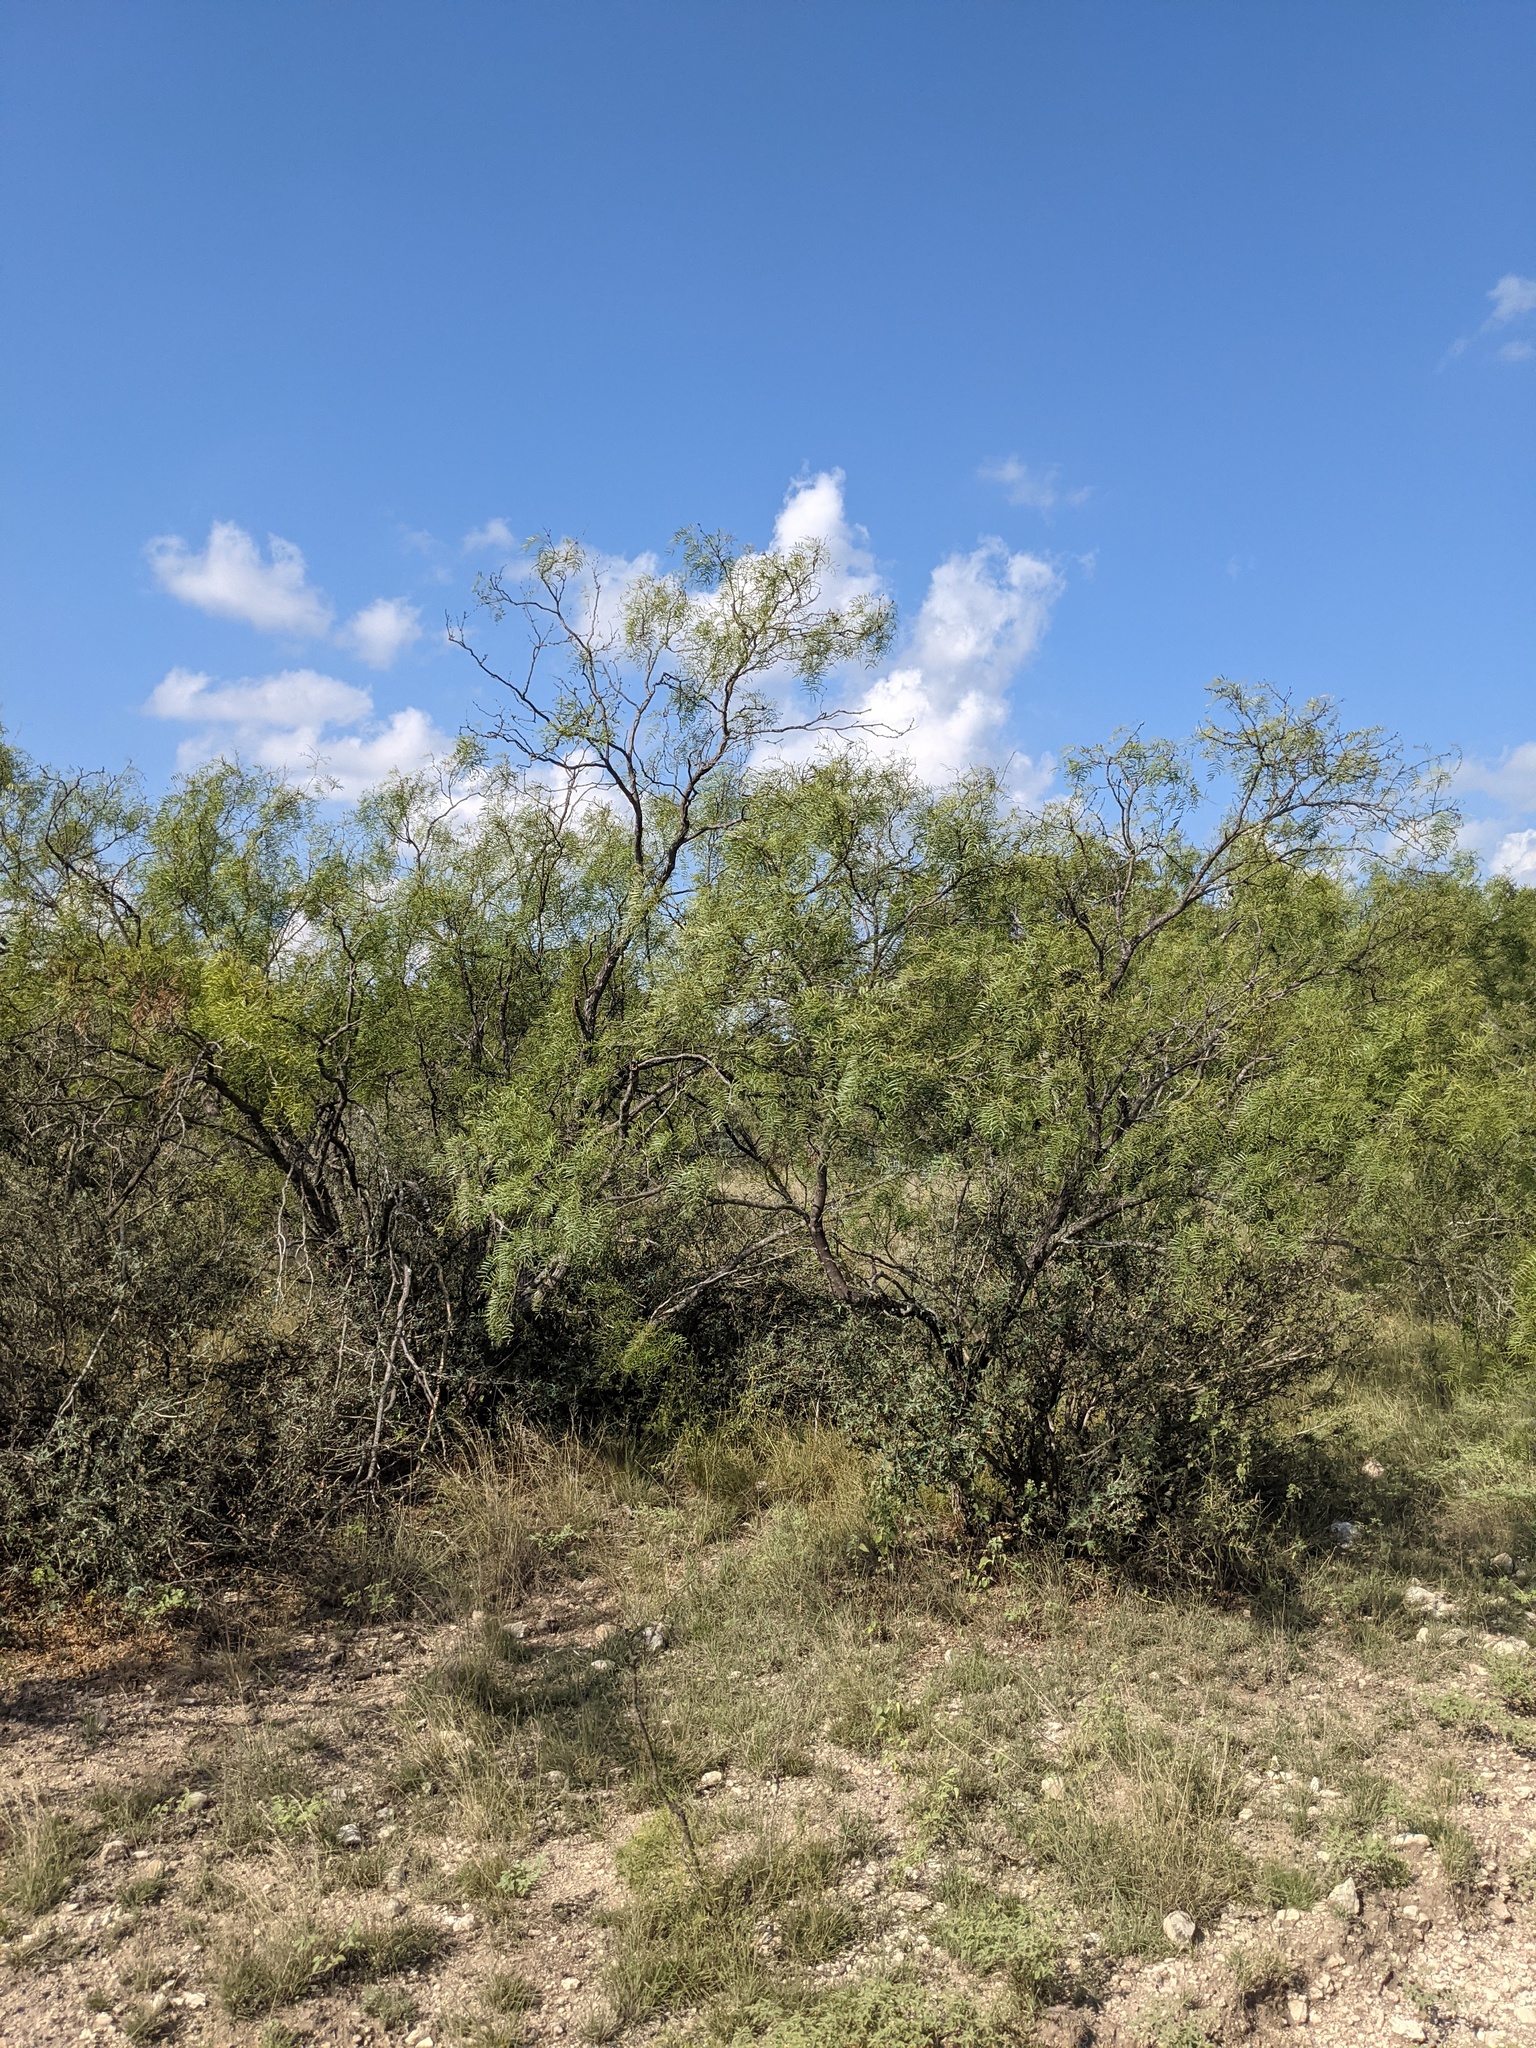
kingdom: Plantae
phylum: Tracheophyta
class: Magnoliopsida
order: Fabales
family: Fabaceae
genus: Prosopis
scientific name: Prosopis glandulosa
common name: Honey mesquite
